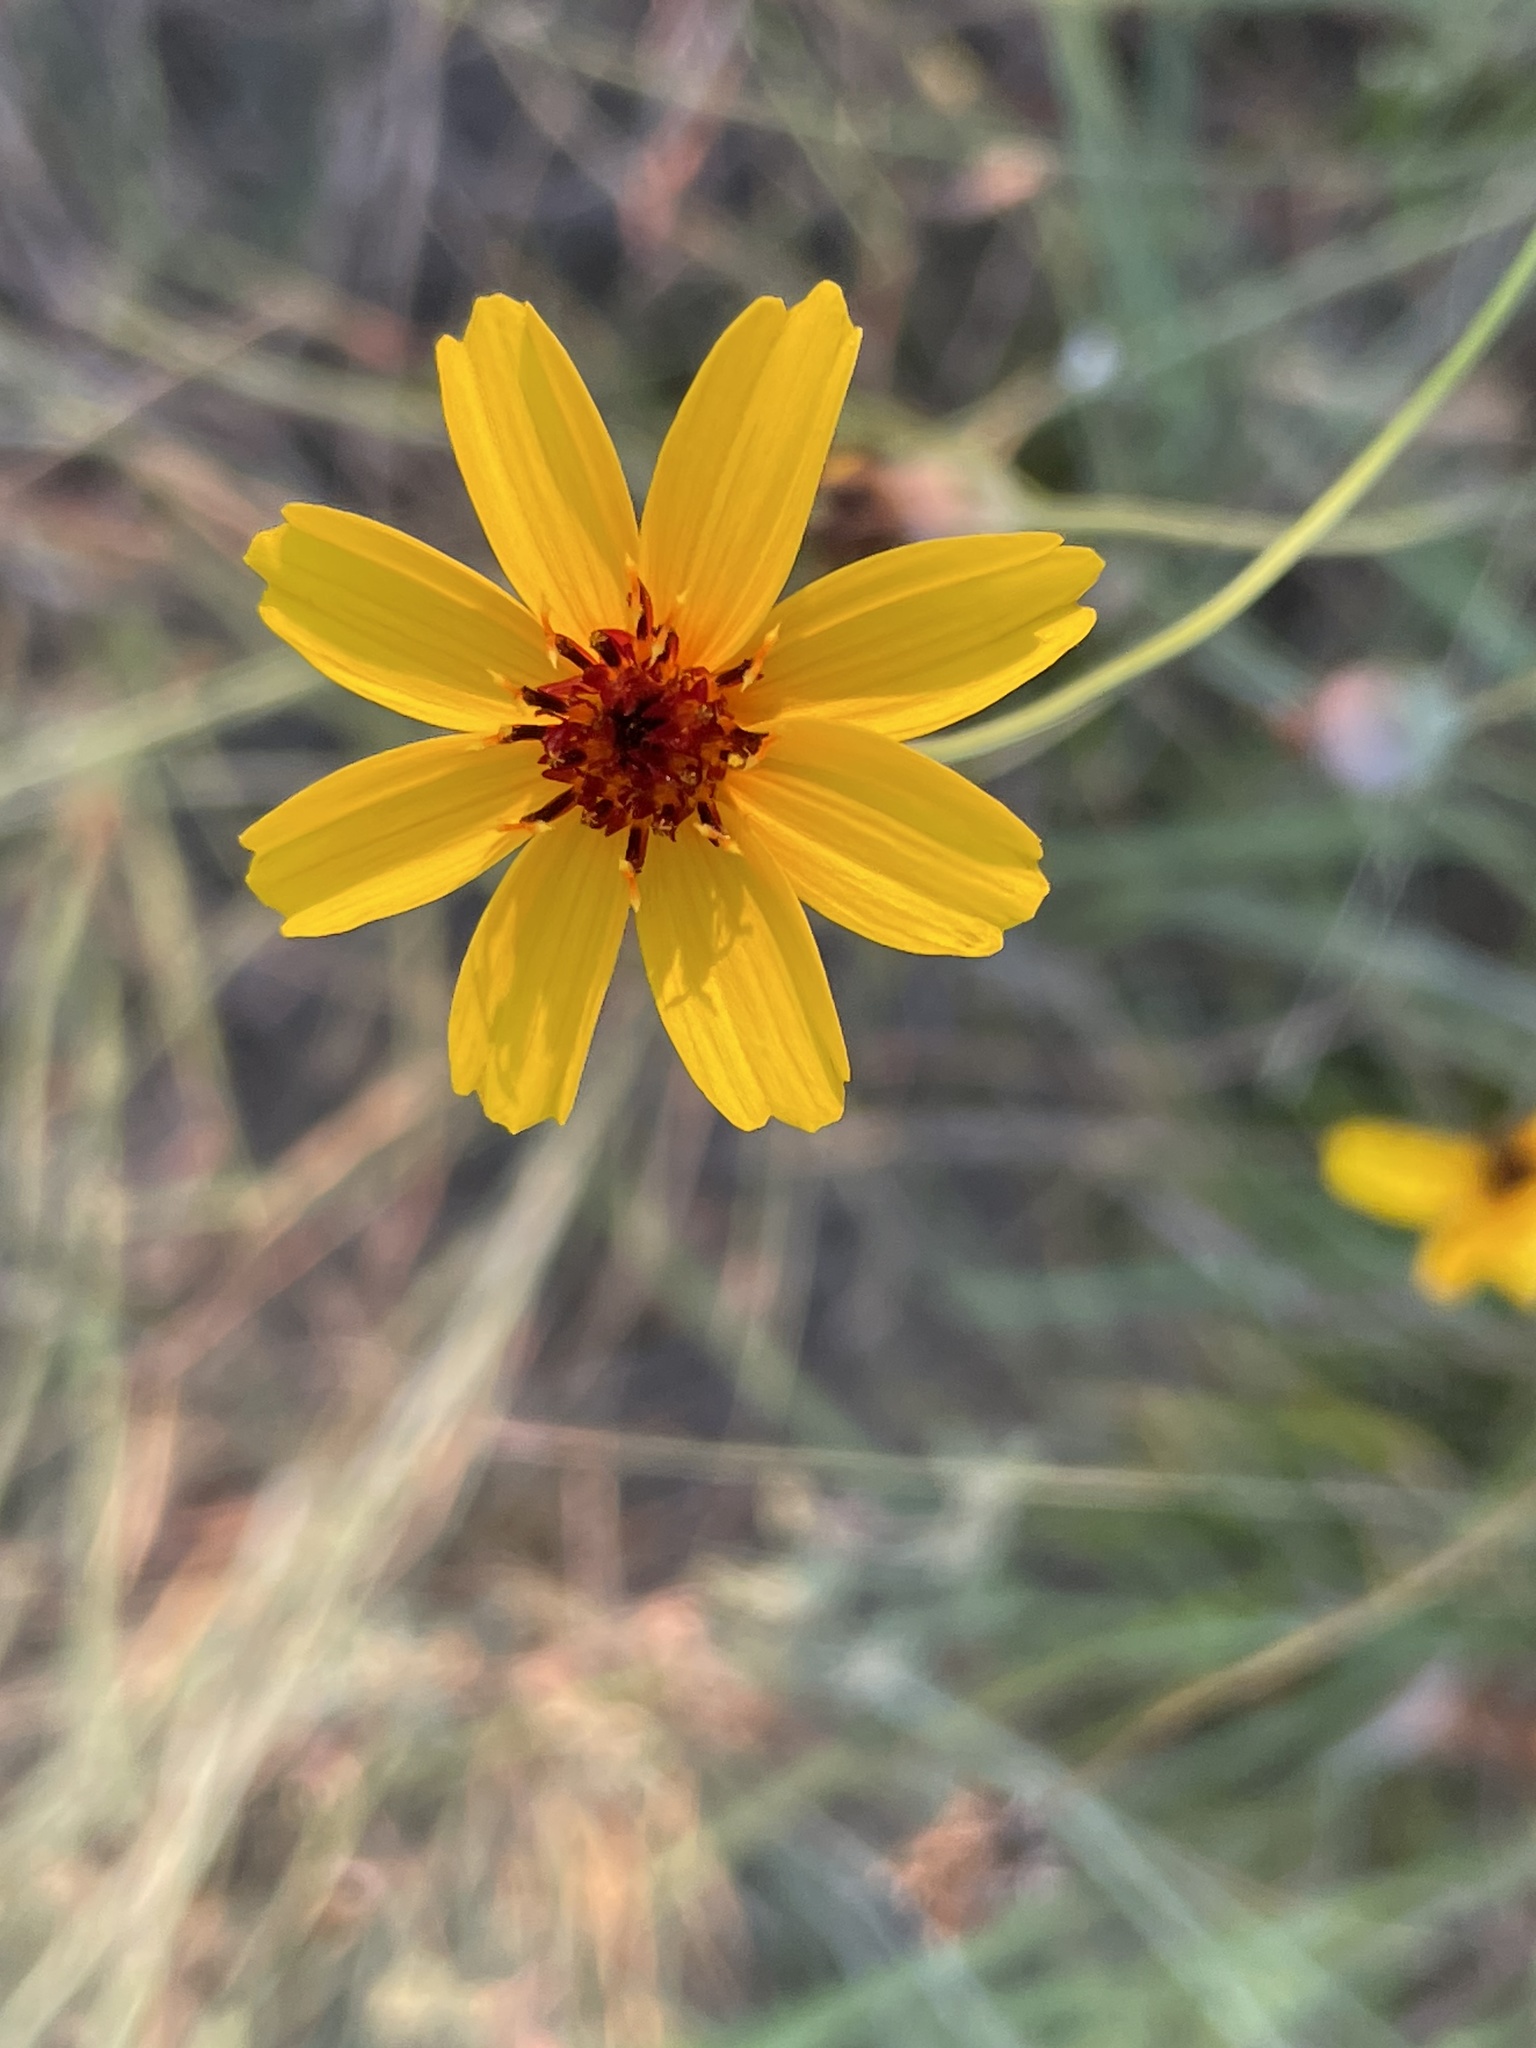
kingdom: Plantae
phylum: Tracheophyta
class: Magnoliopsida
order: Asterales
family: Asteraceae
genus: Thelesperma
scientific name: Thelesperma filifolium
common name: Stiff greenthread
